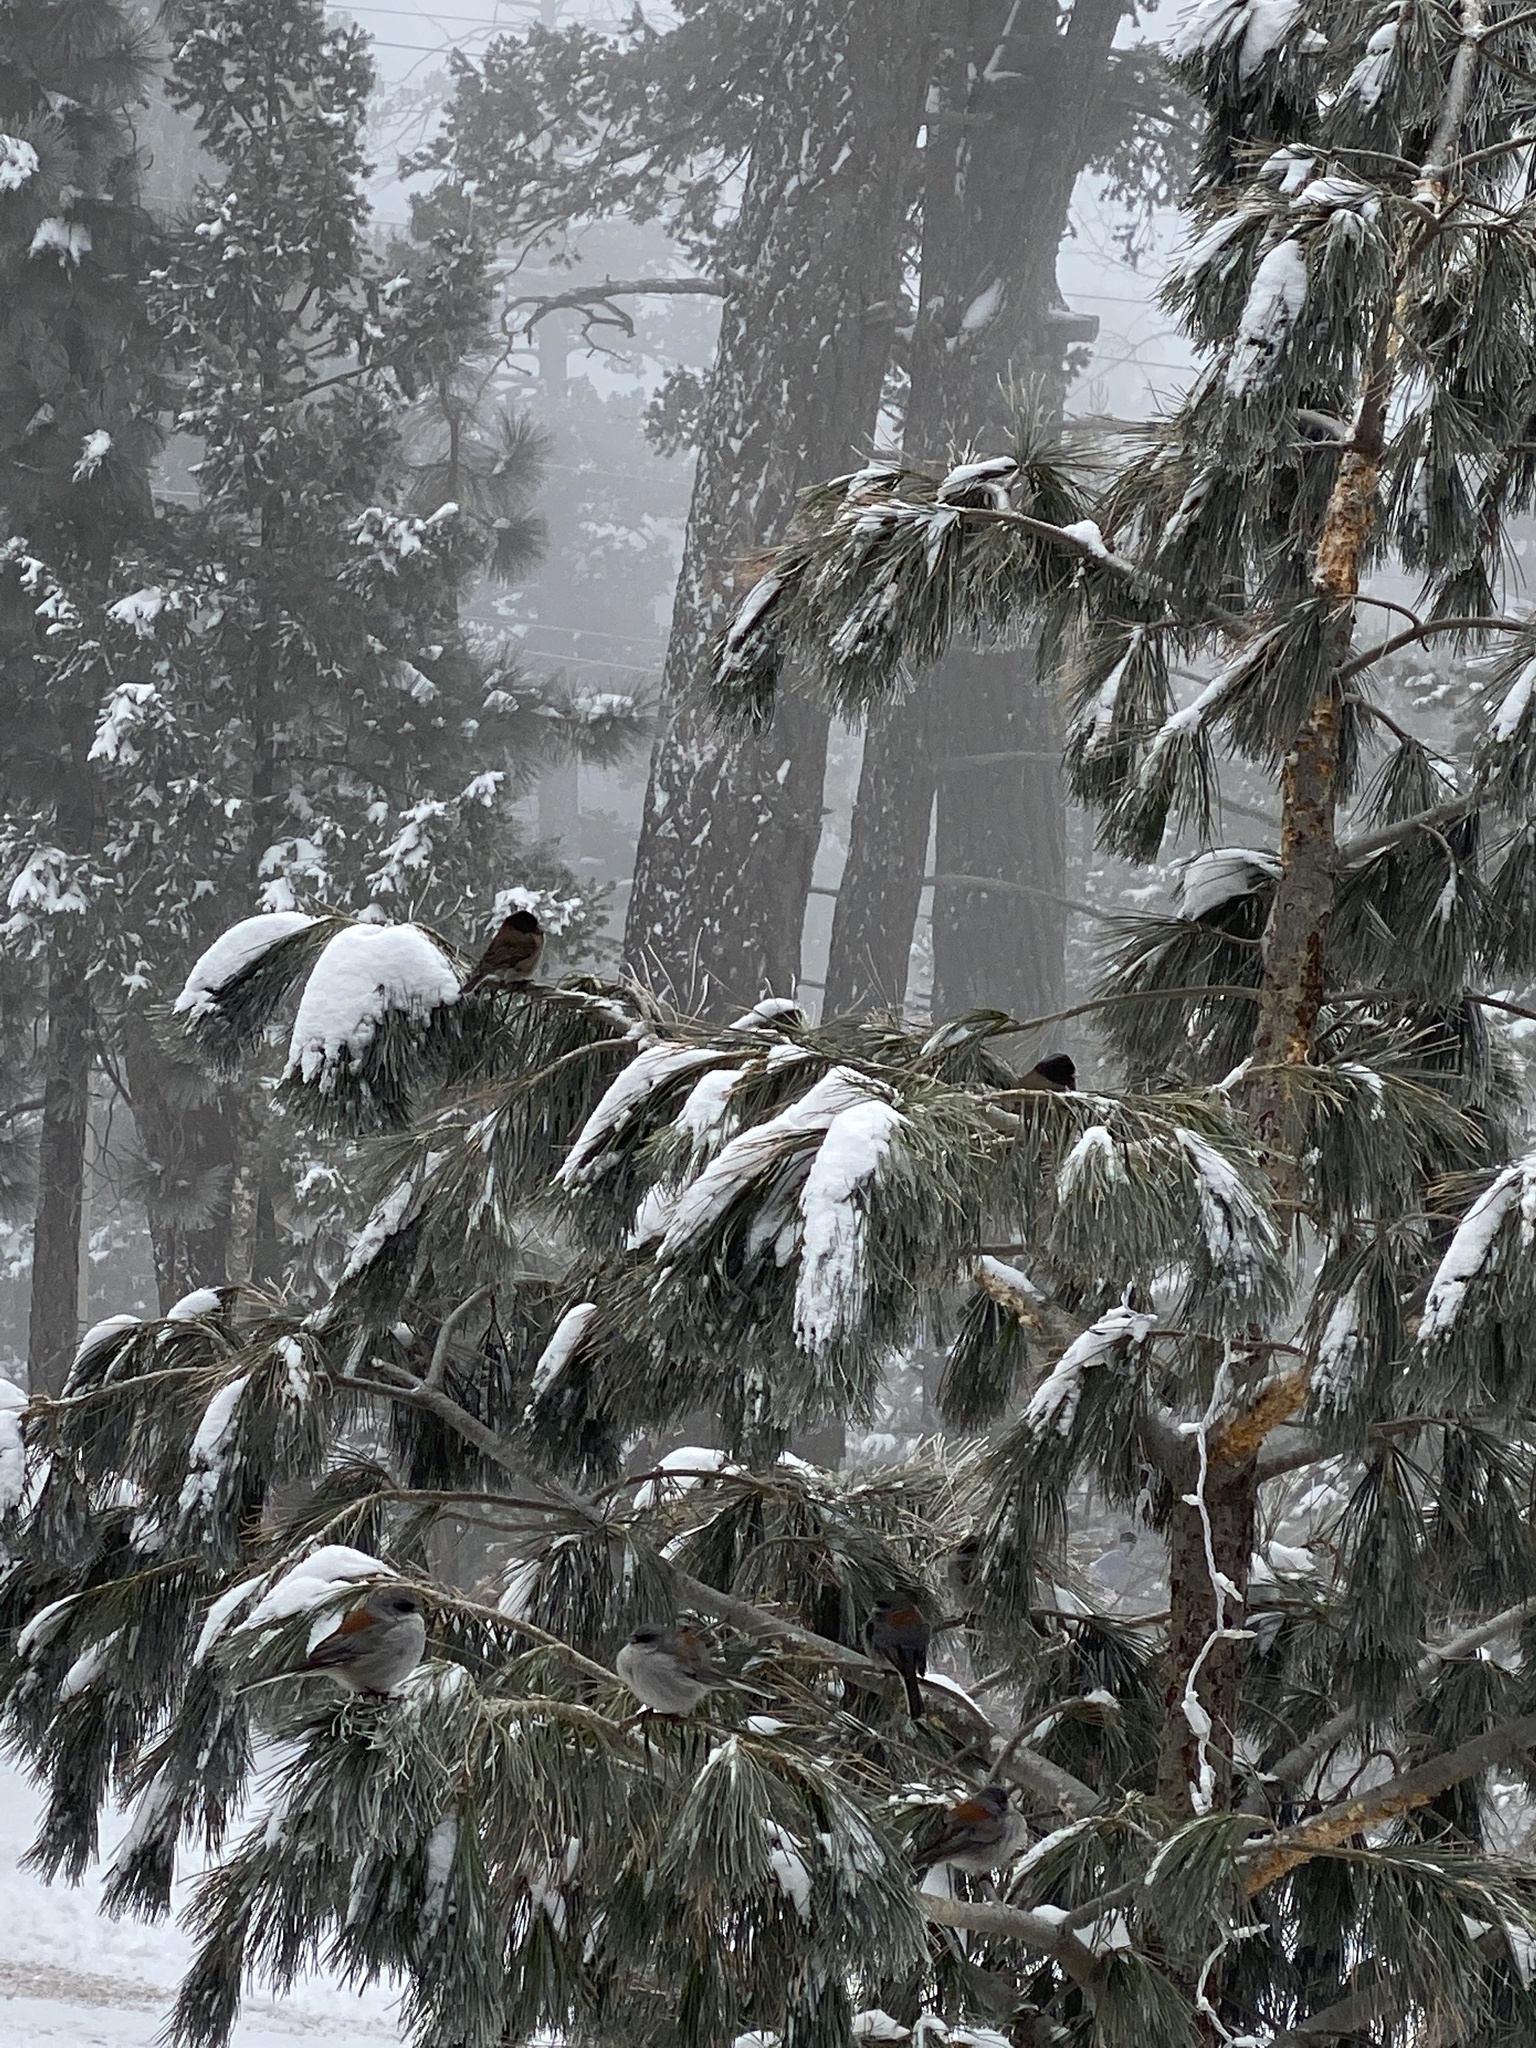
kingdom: Animalia
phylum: Chordata
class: Aves
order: Passeriformes
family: Passerellidae
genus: Junco
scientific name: Junco hyemalis
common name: Dark-eyed junco
